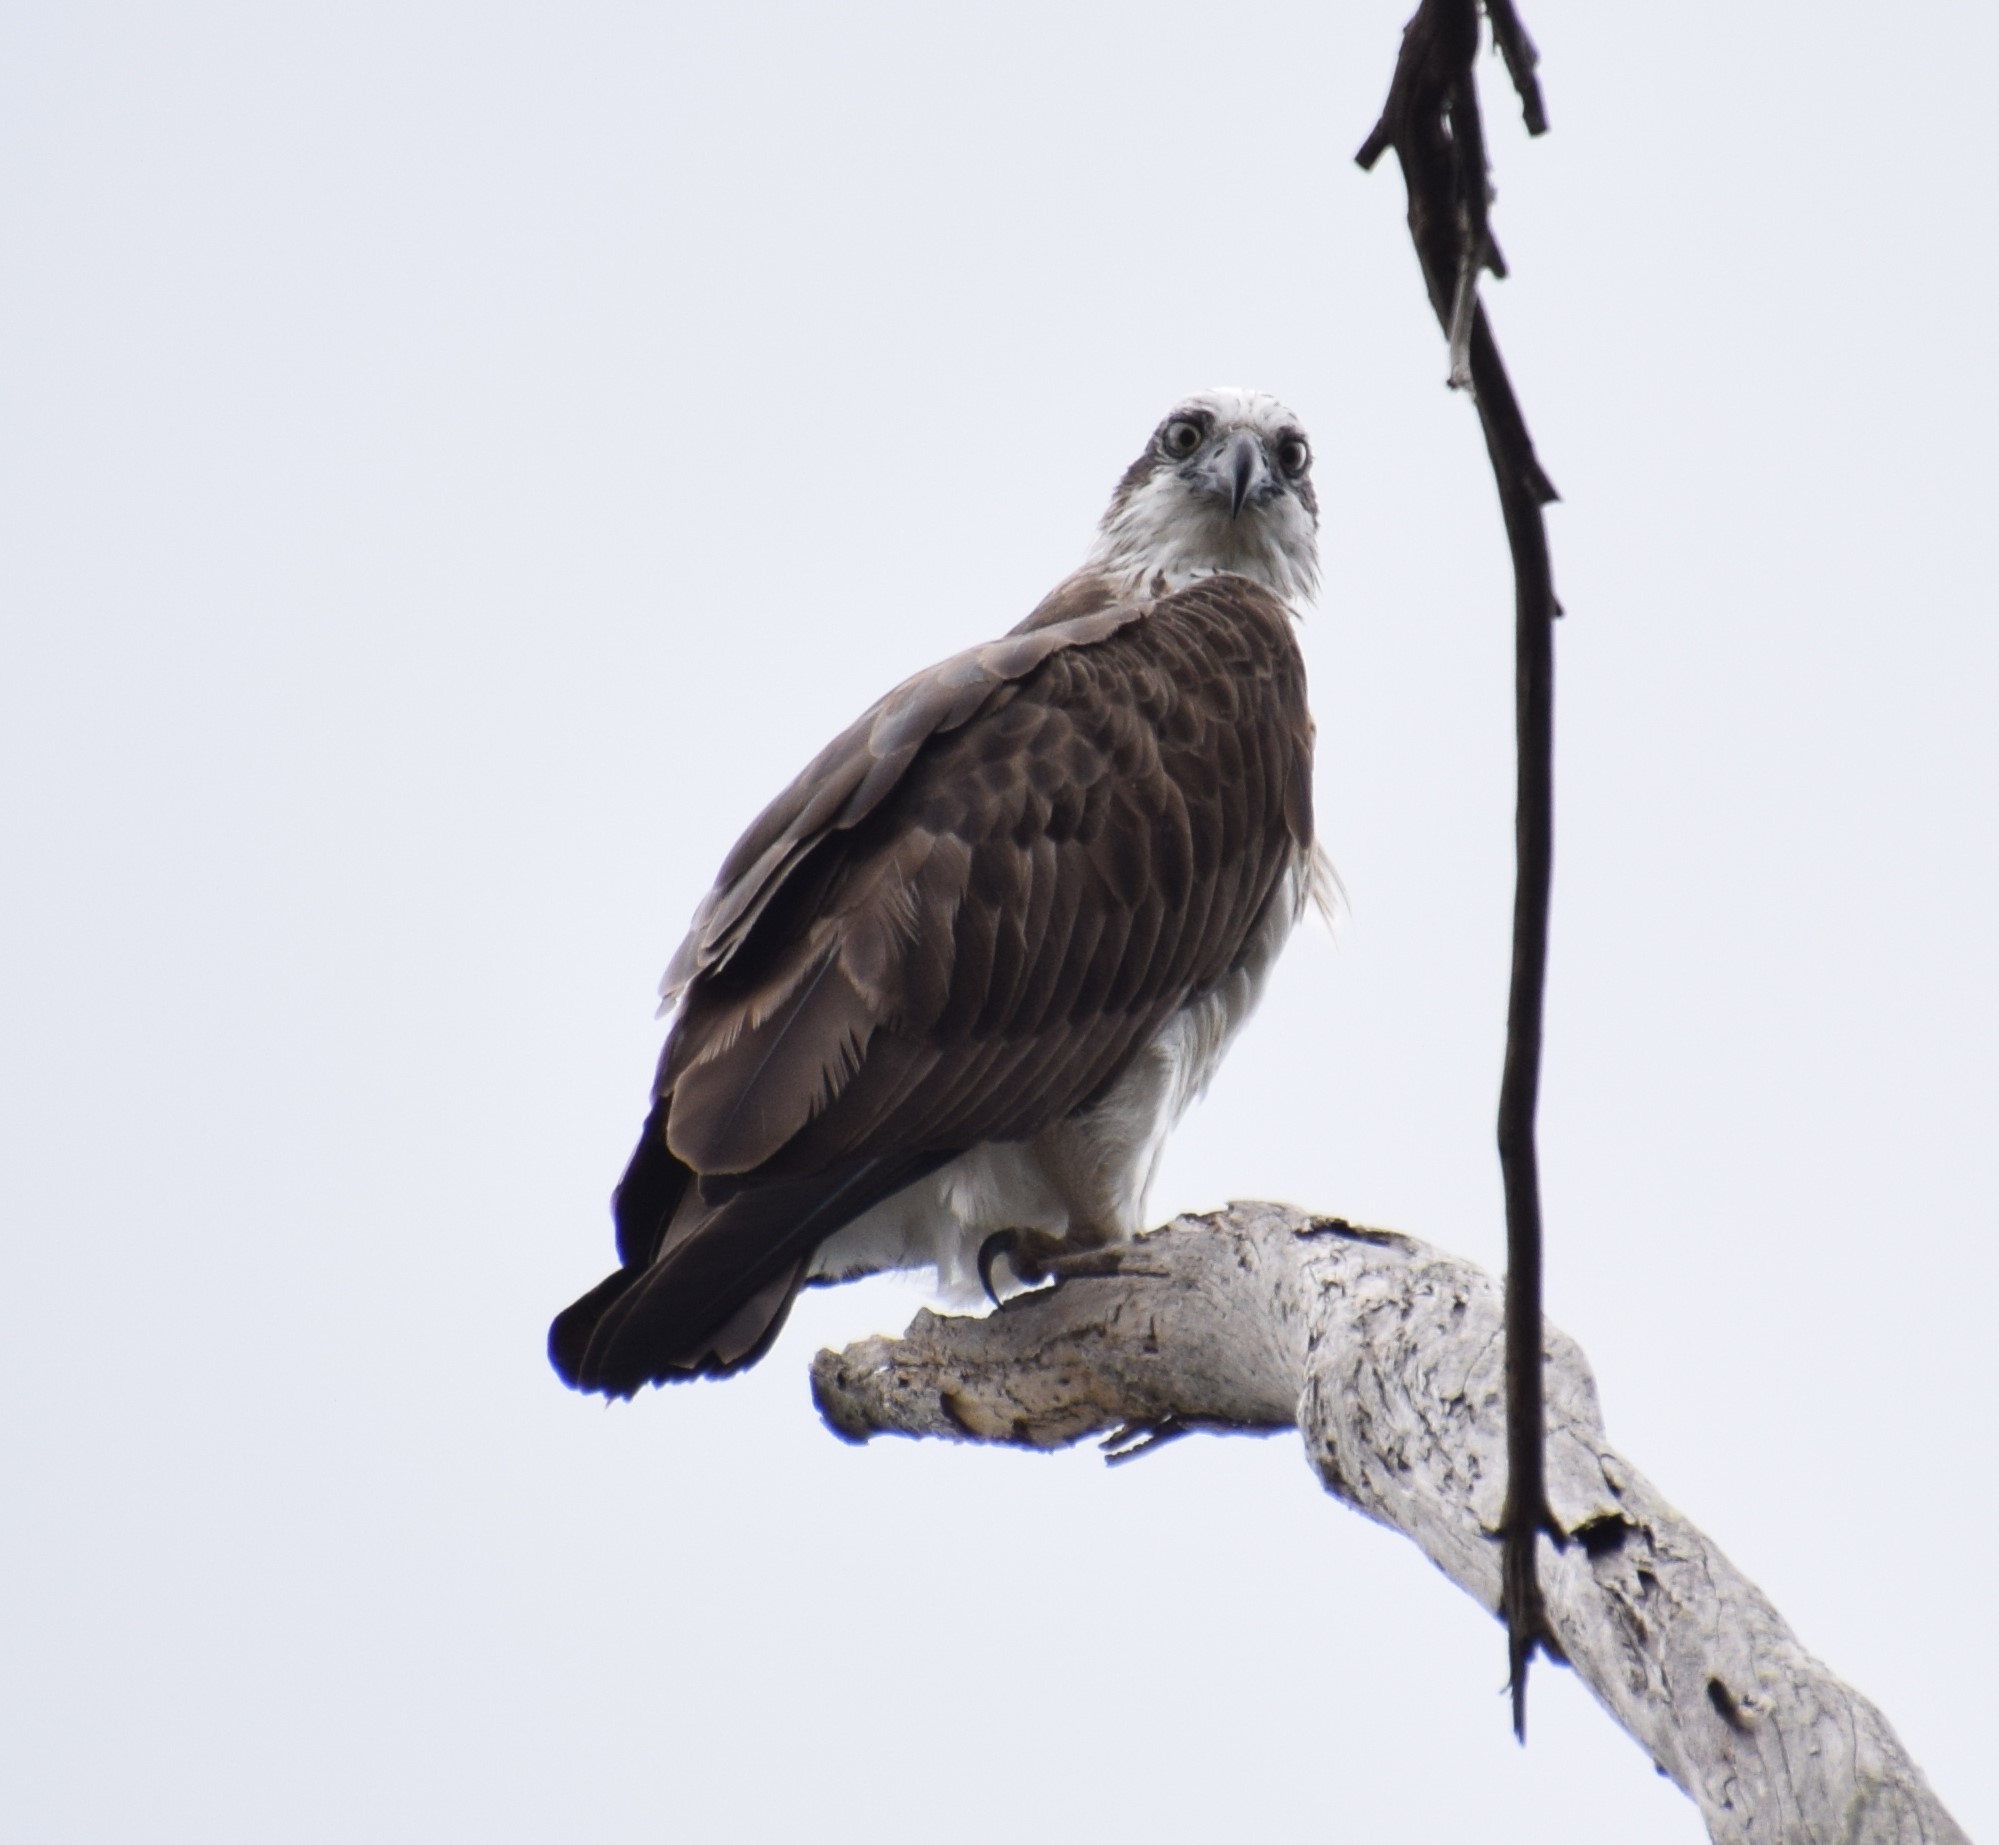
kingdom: Animalia
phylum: Chordata
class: Aves
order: Accipitriformes
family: Pandionidae
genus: Pandion
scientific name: Pandion haliaetus
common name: Osprey
